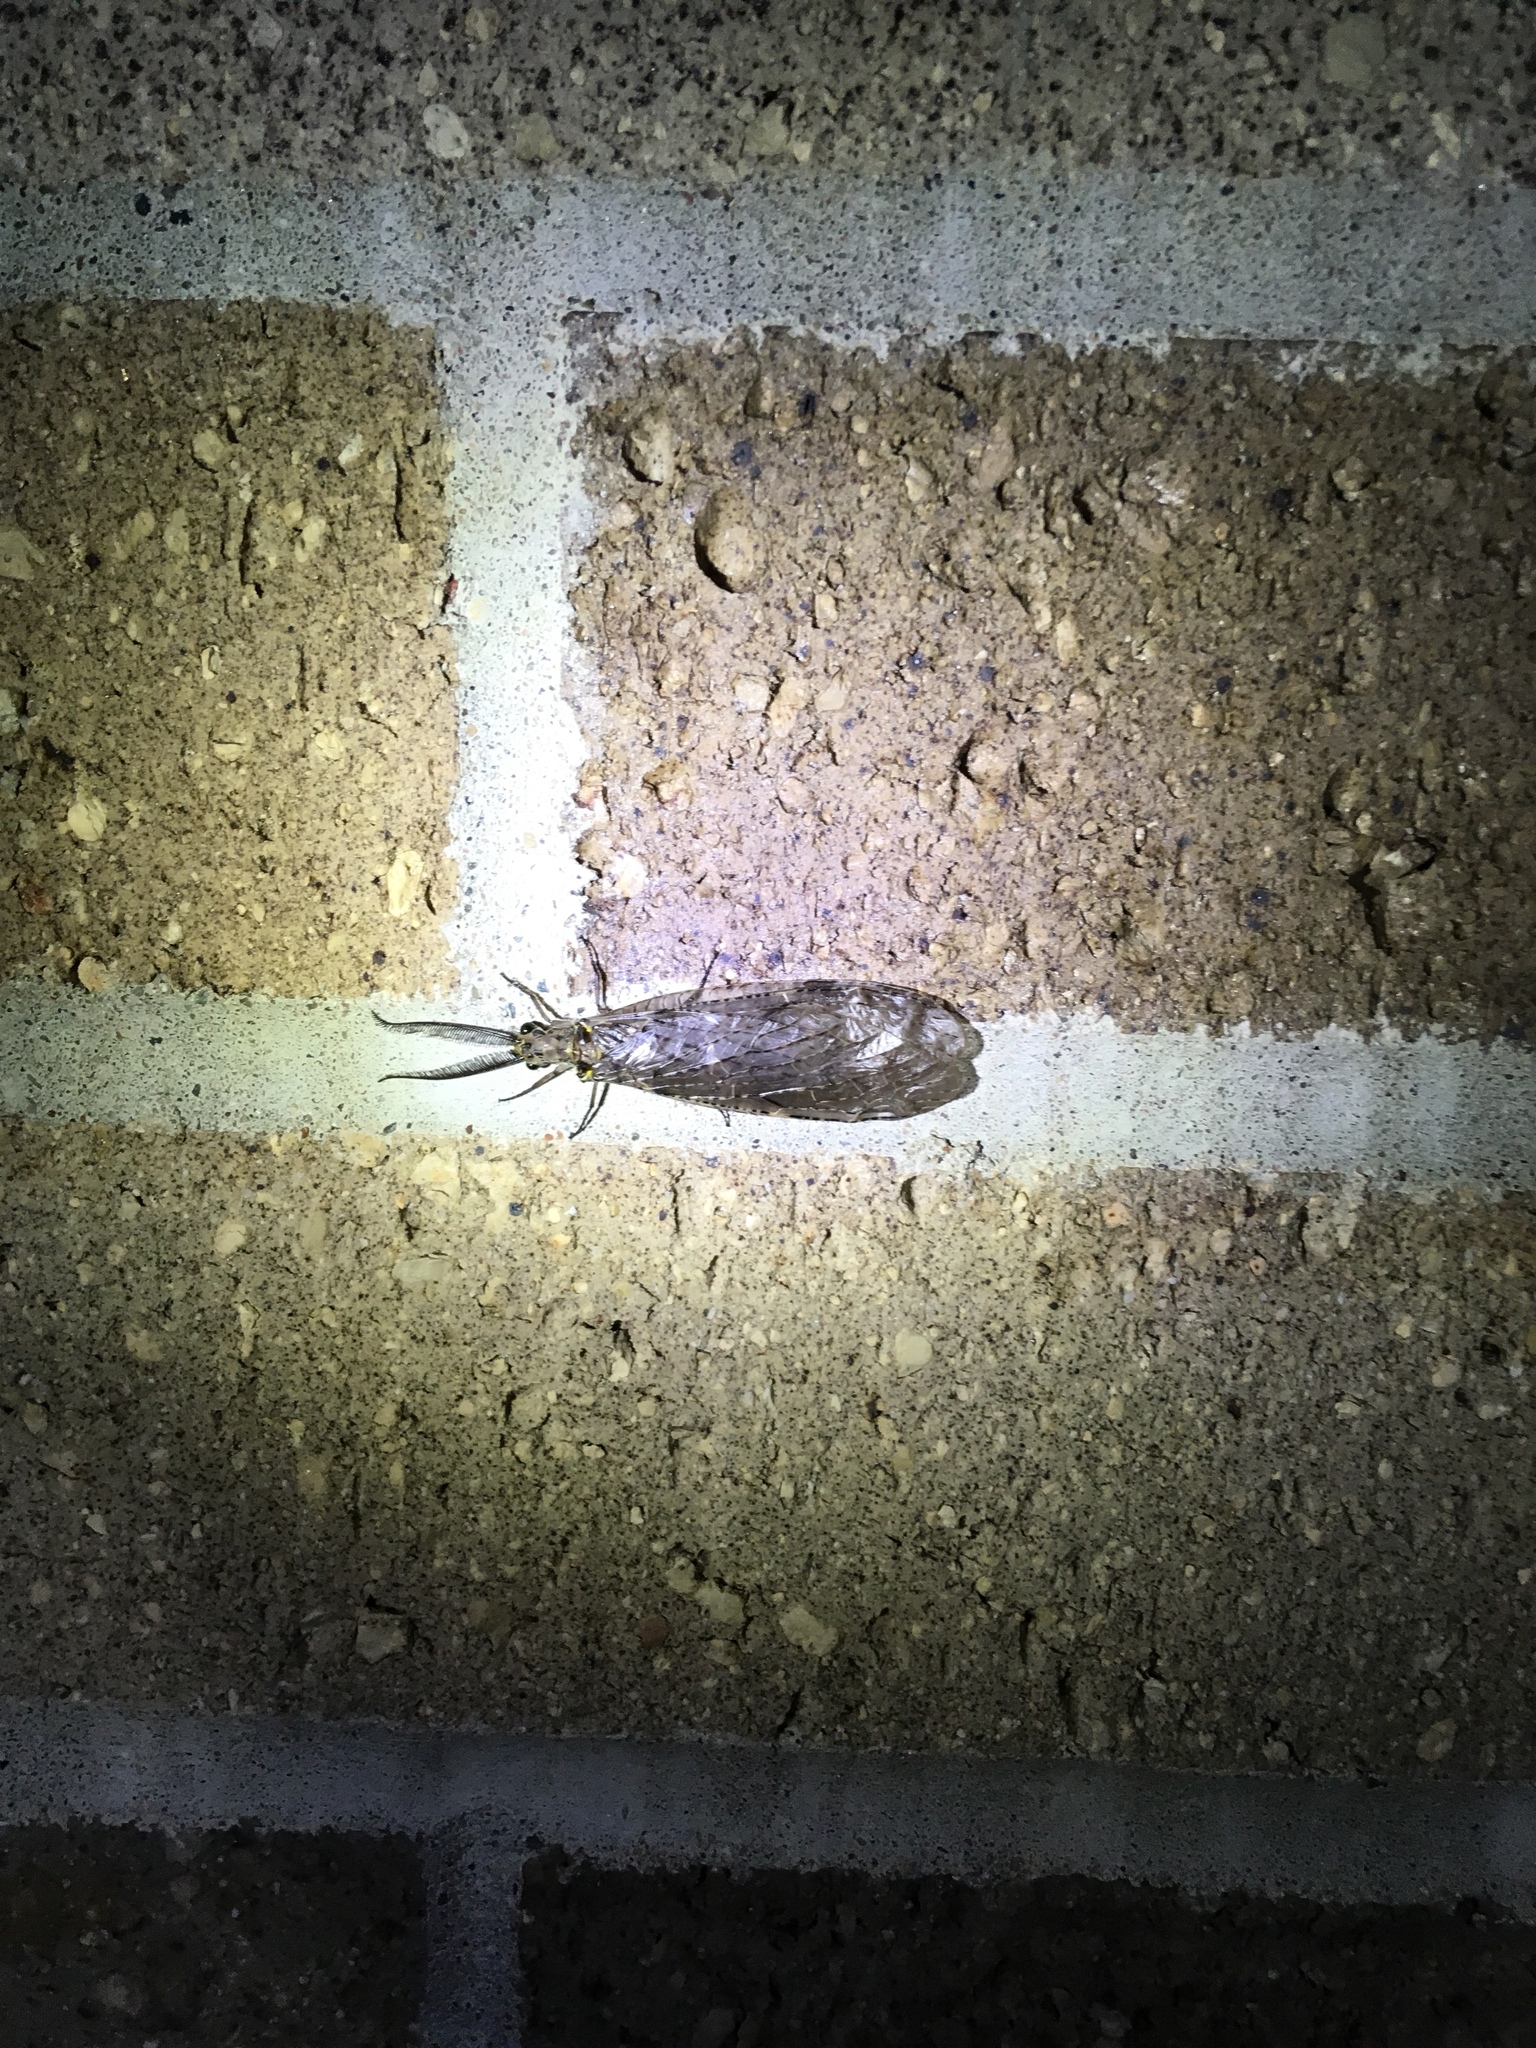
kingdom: Animalia
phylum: Arthropoda
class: Insecta
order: Megaloptera
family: Corydalidae
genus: Chauliodes
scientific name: Chauliodes rastricornis
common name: Spring fishfly
